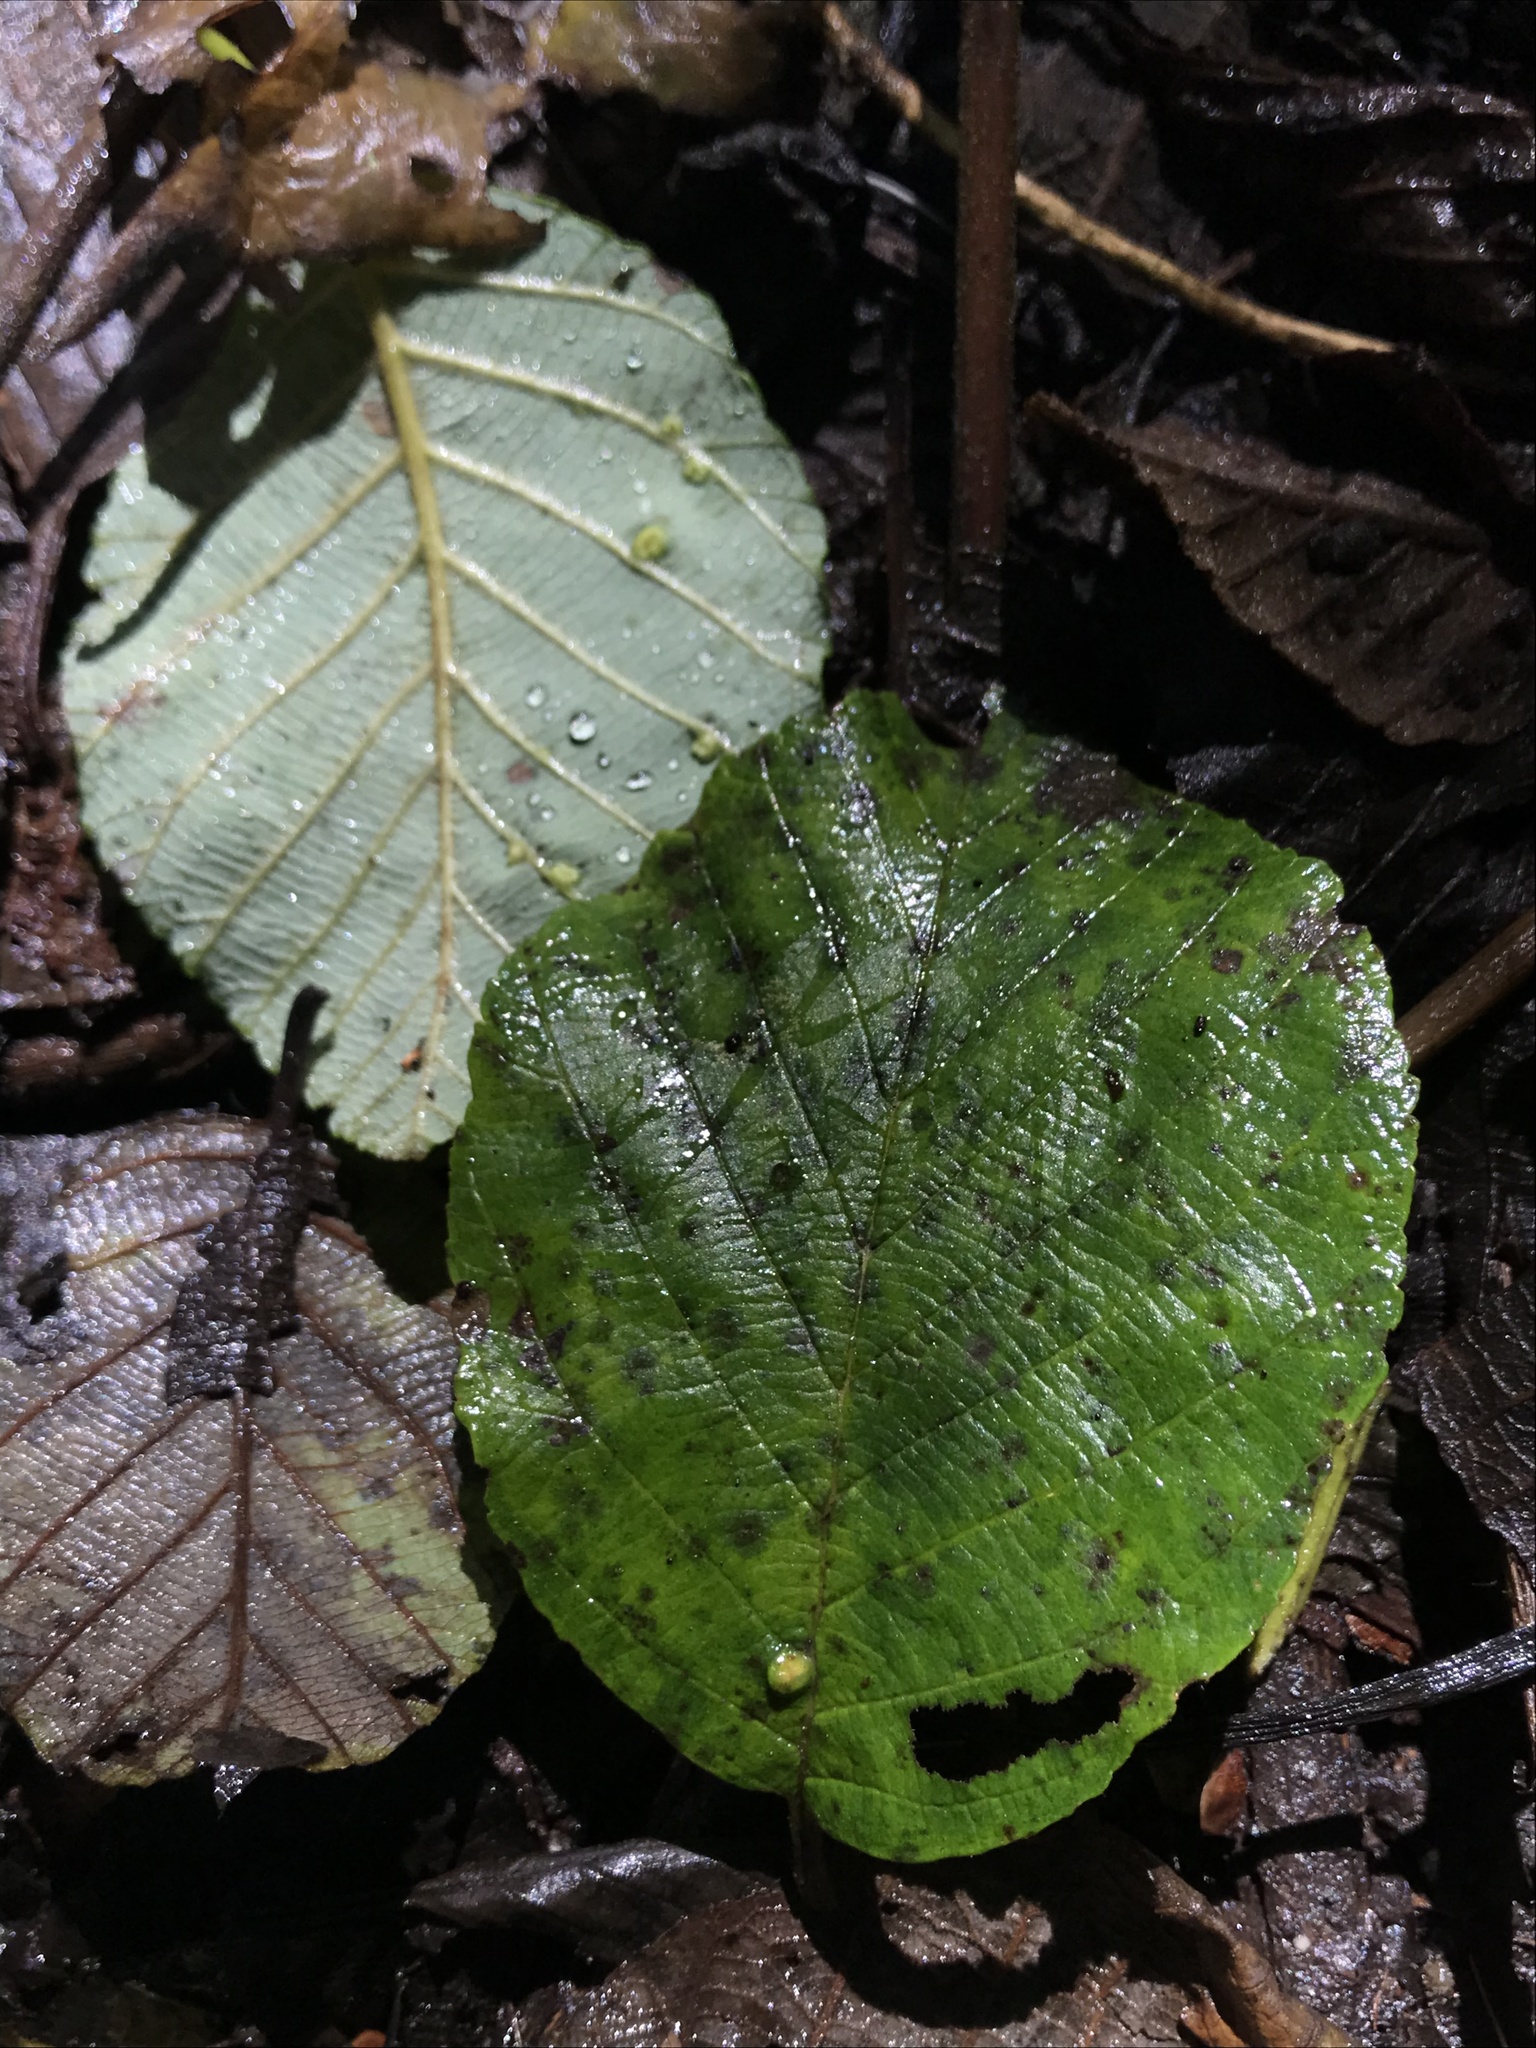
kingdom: Plantae
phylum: Tracheophyta
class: Magnoliopsida
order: Fagales
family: Betulaceae
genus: Alnus
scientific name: Alnus acuminata
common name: Alder
